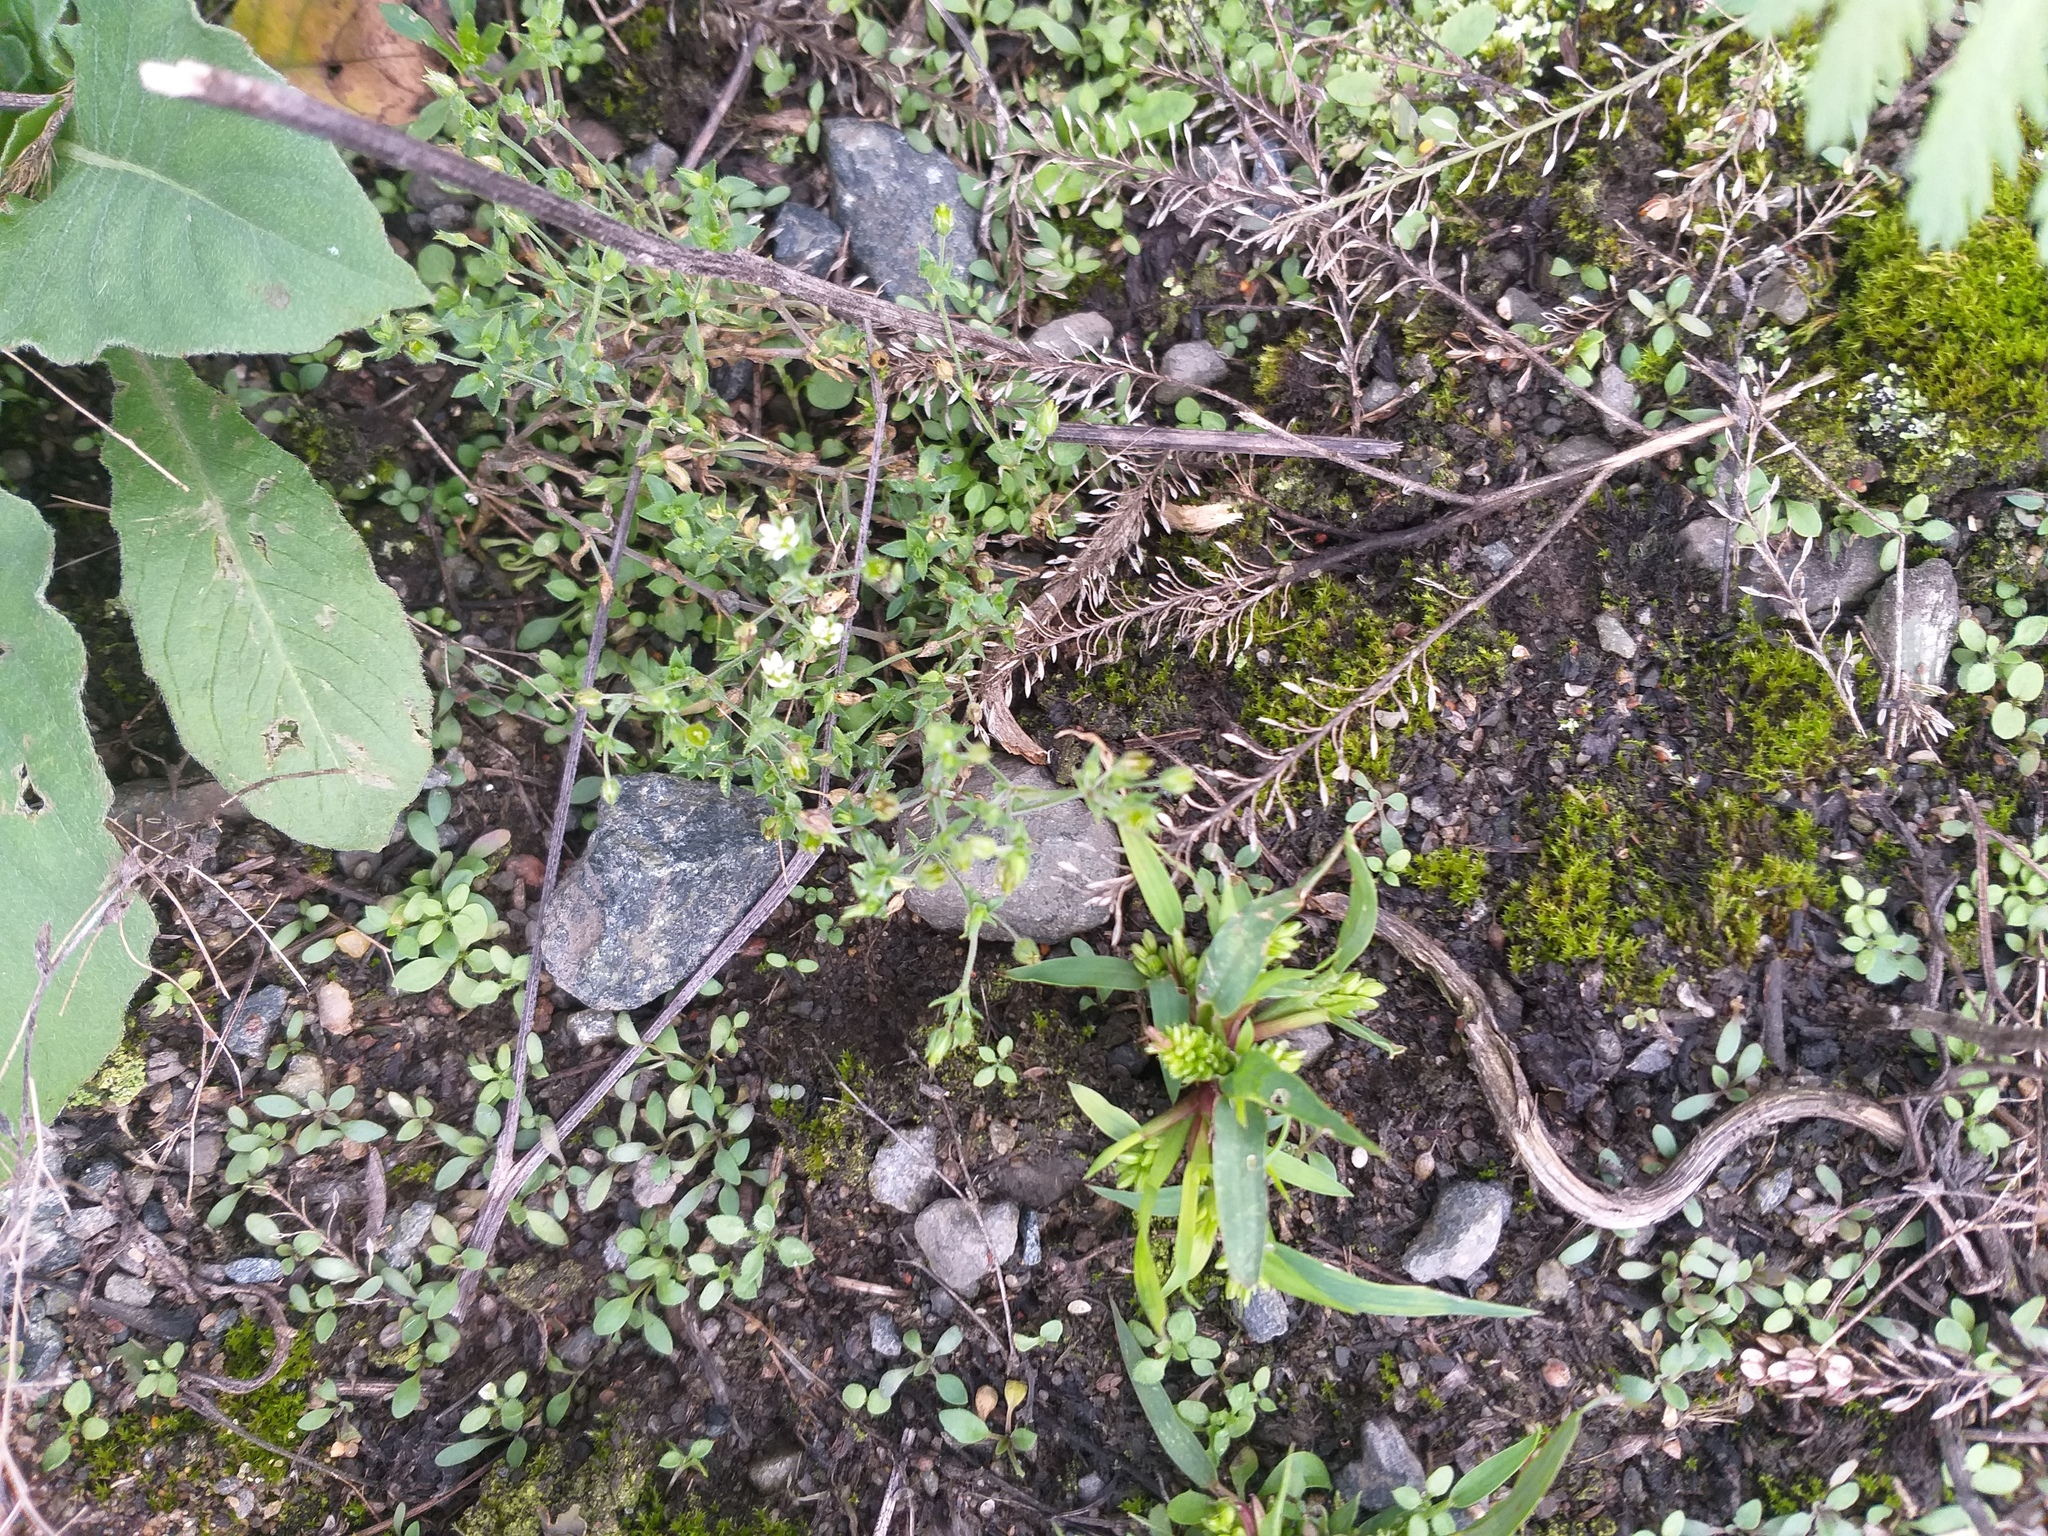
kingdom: Plantae
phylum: Tracheophyta
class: Magnoliopsida
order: Brassicales
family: Brassicaceae
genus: Lepidium
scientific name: Lepidium densiflorum
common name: Miner's pepperwort
